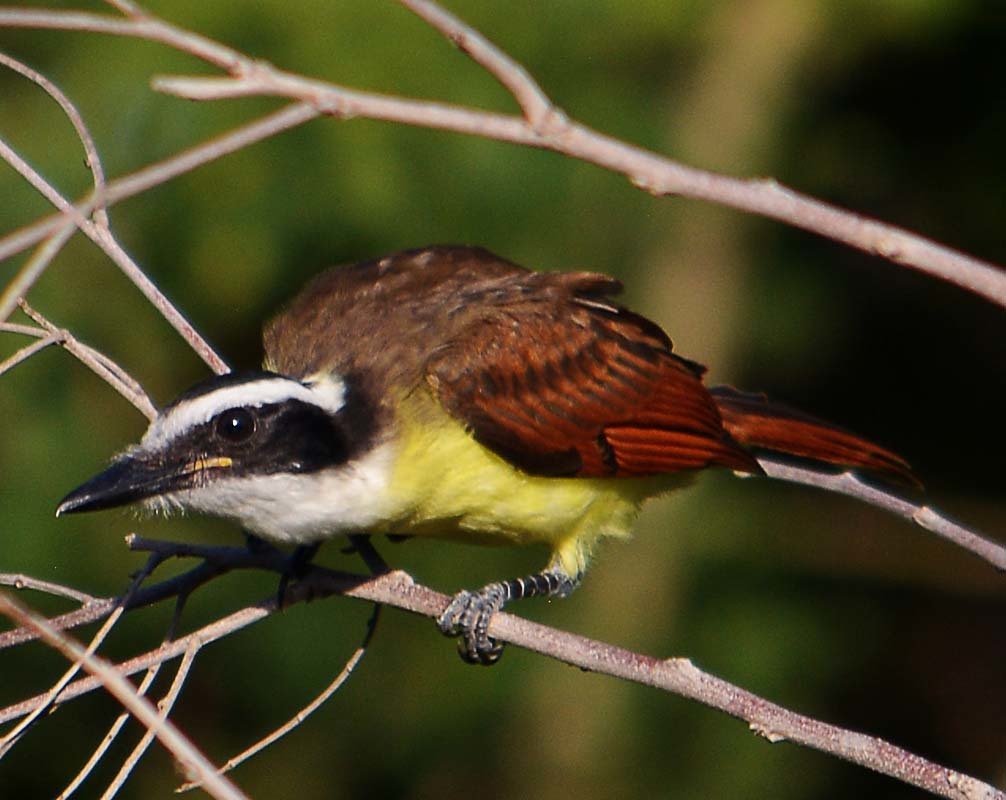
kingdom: Animalia
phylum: Chordata
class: Aves
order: Passeriformes
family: Tyrannidae
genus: Pitangus
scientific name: Pitangus sulphuratus
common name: Great kiskadee
